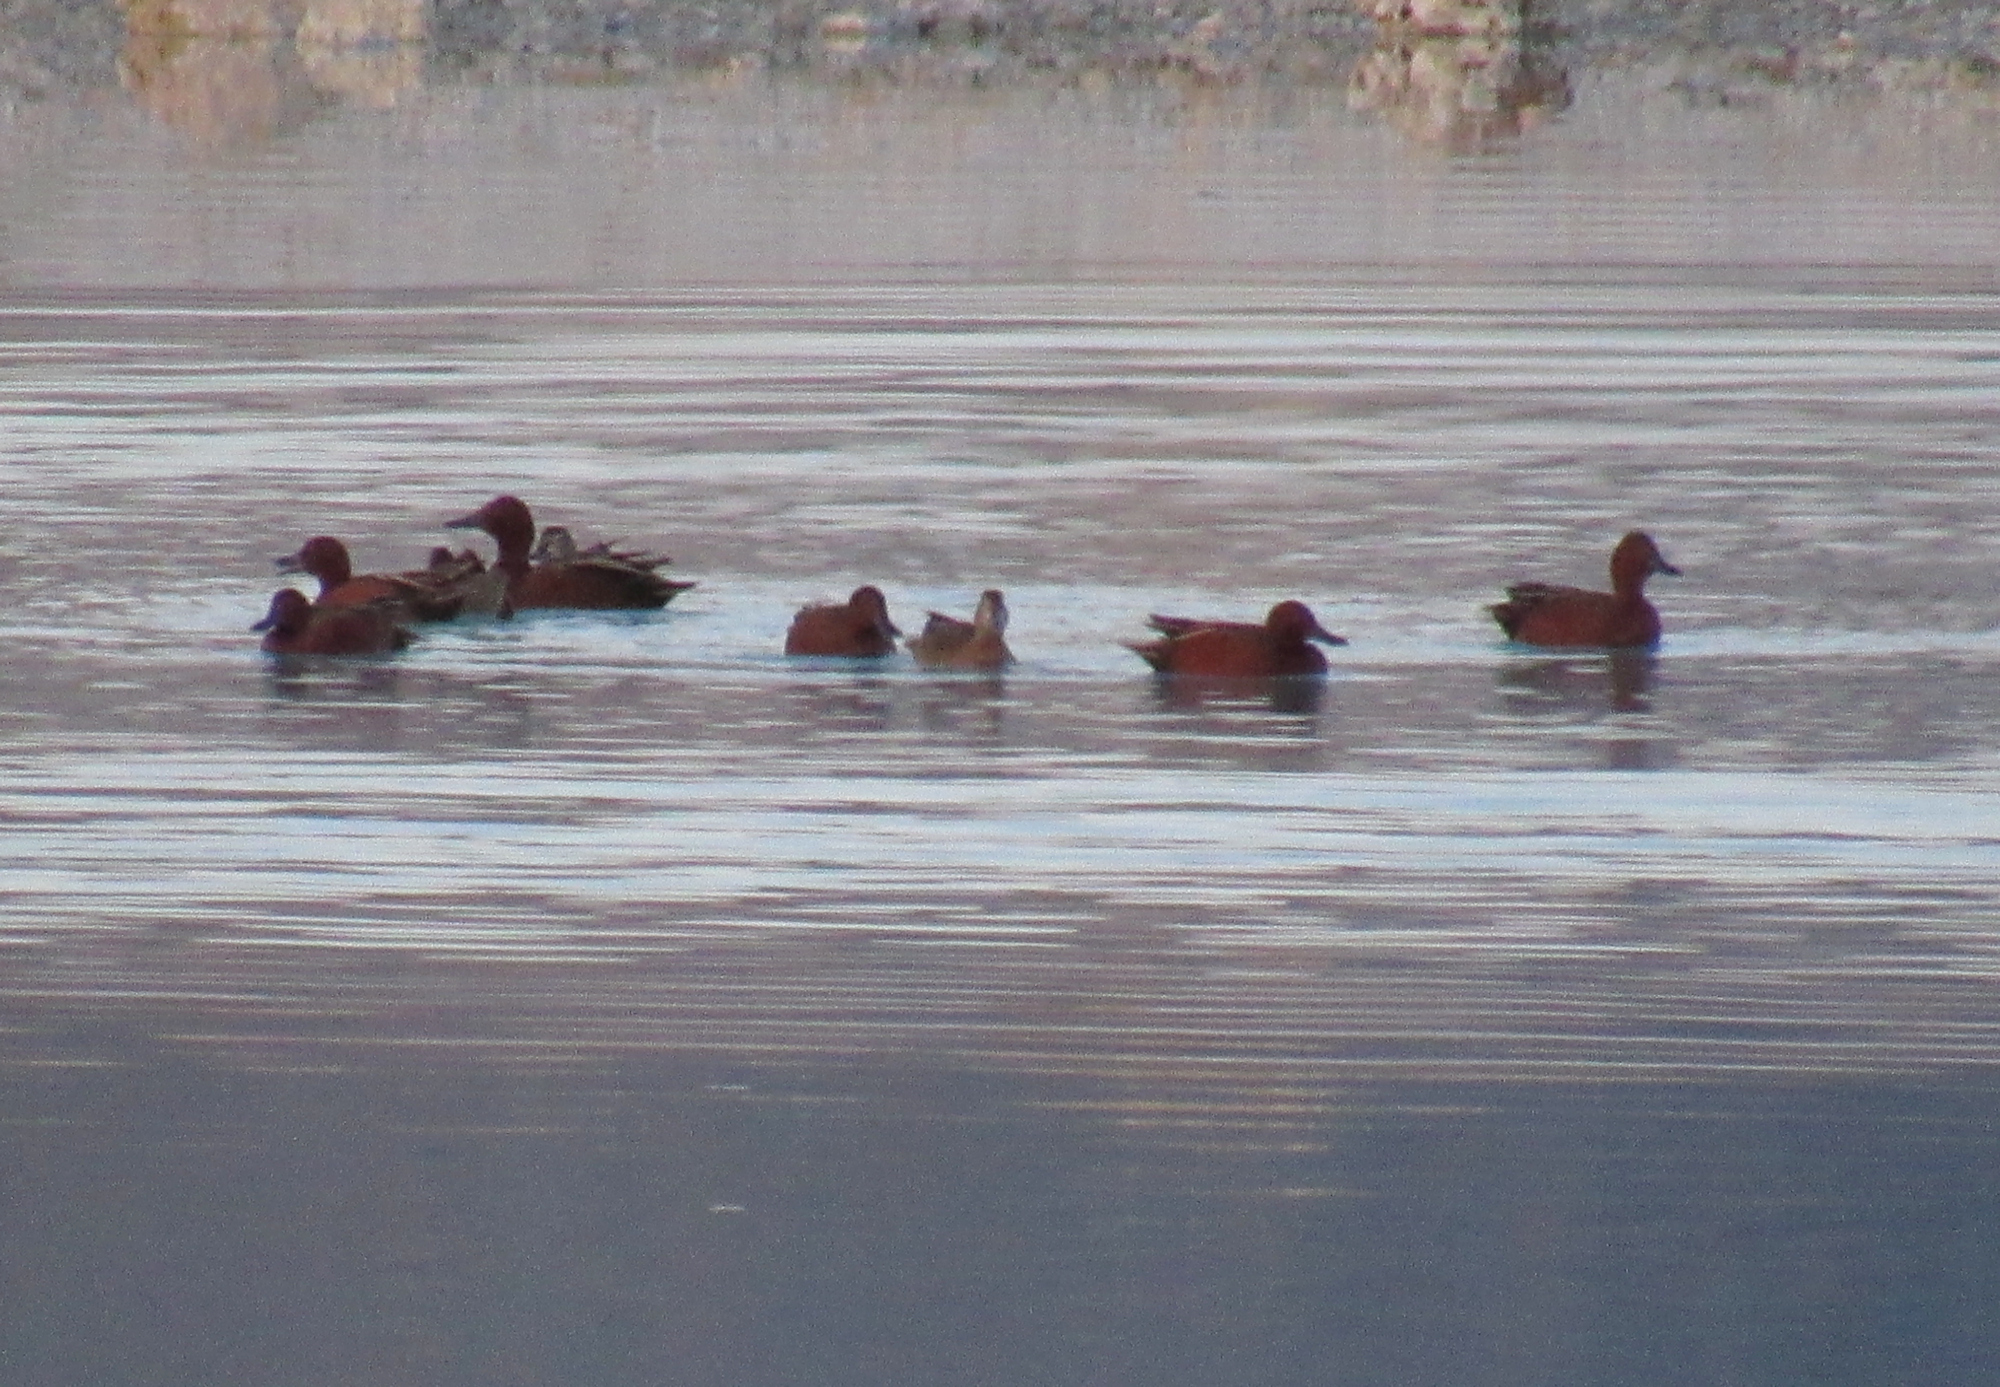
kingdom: Animalia
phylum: Chordata
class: Aves
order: Anseriformes
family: Anatidae
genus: Spatula
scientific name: Spatula cyanoptera
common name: Cinnamon teal
